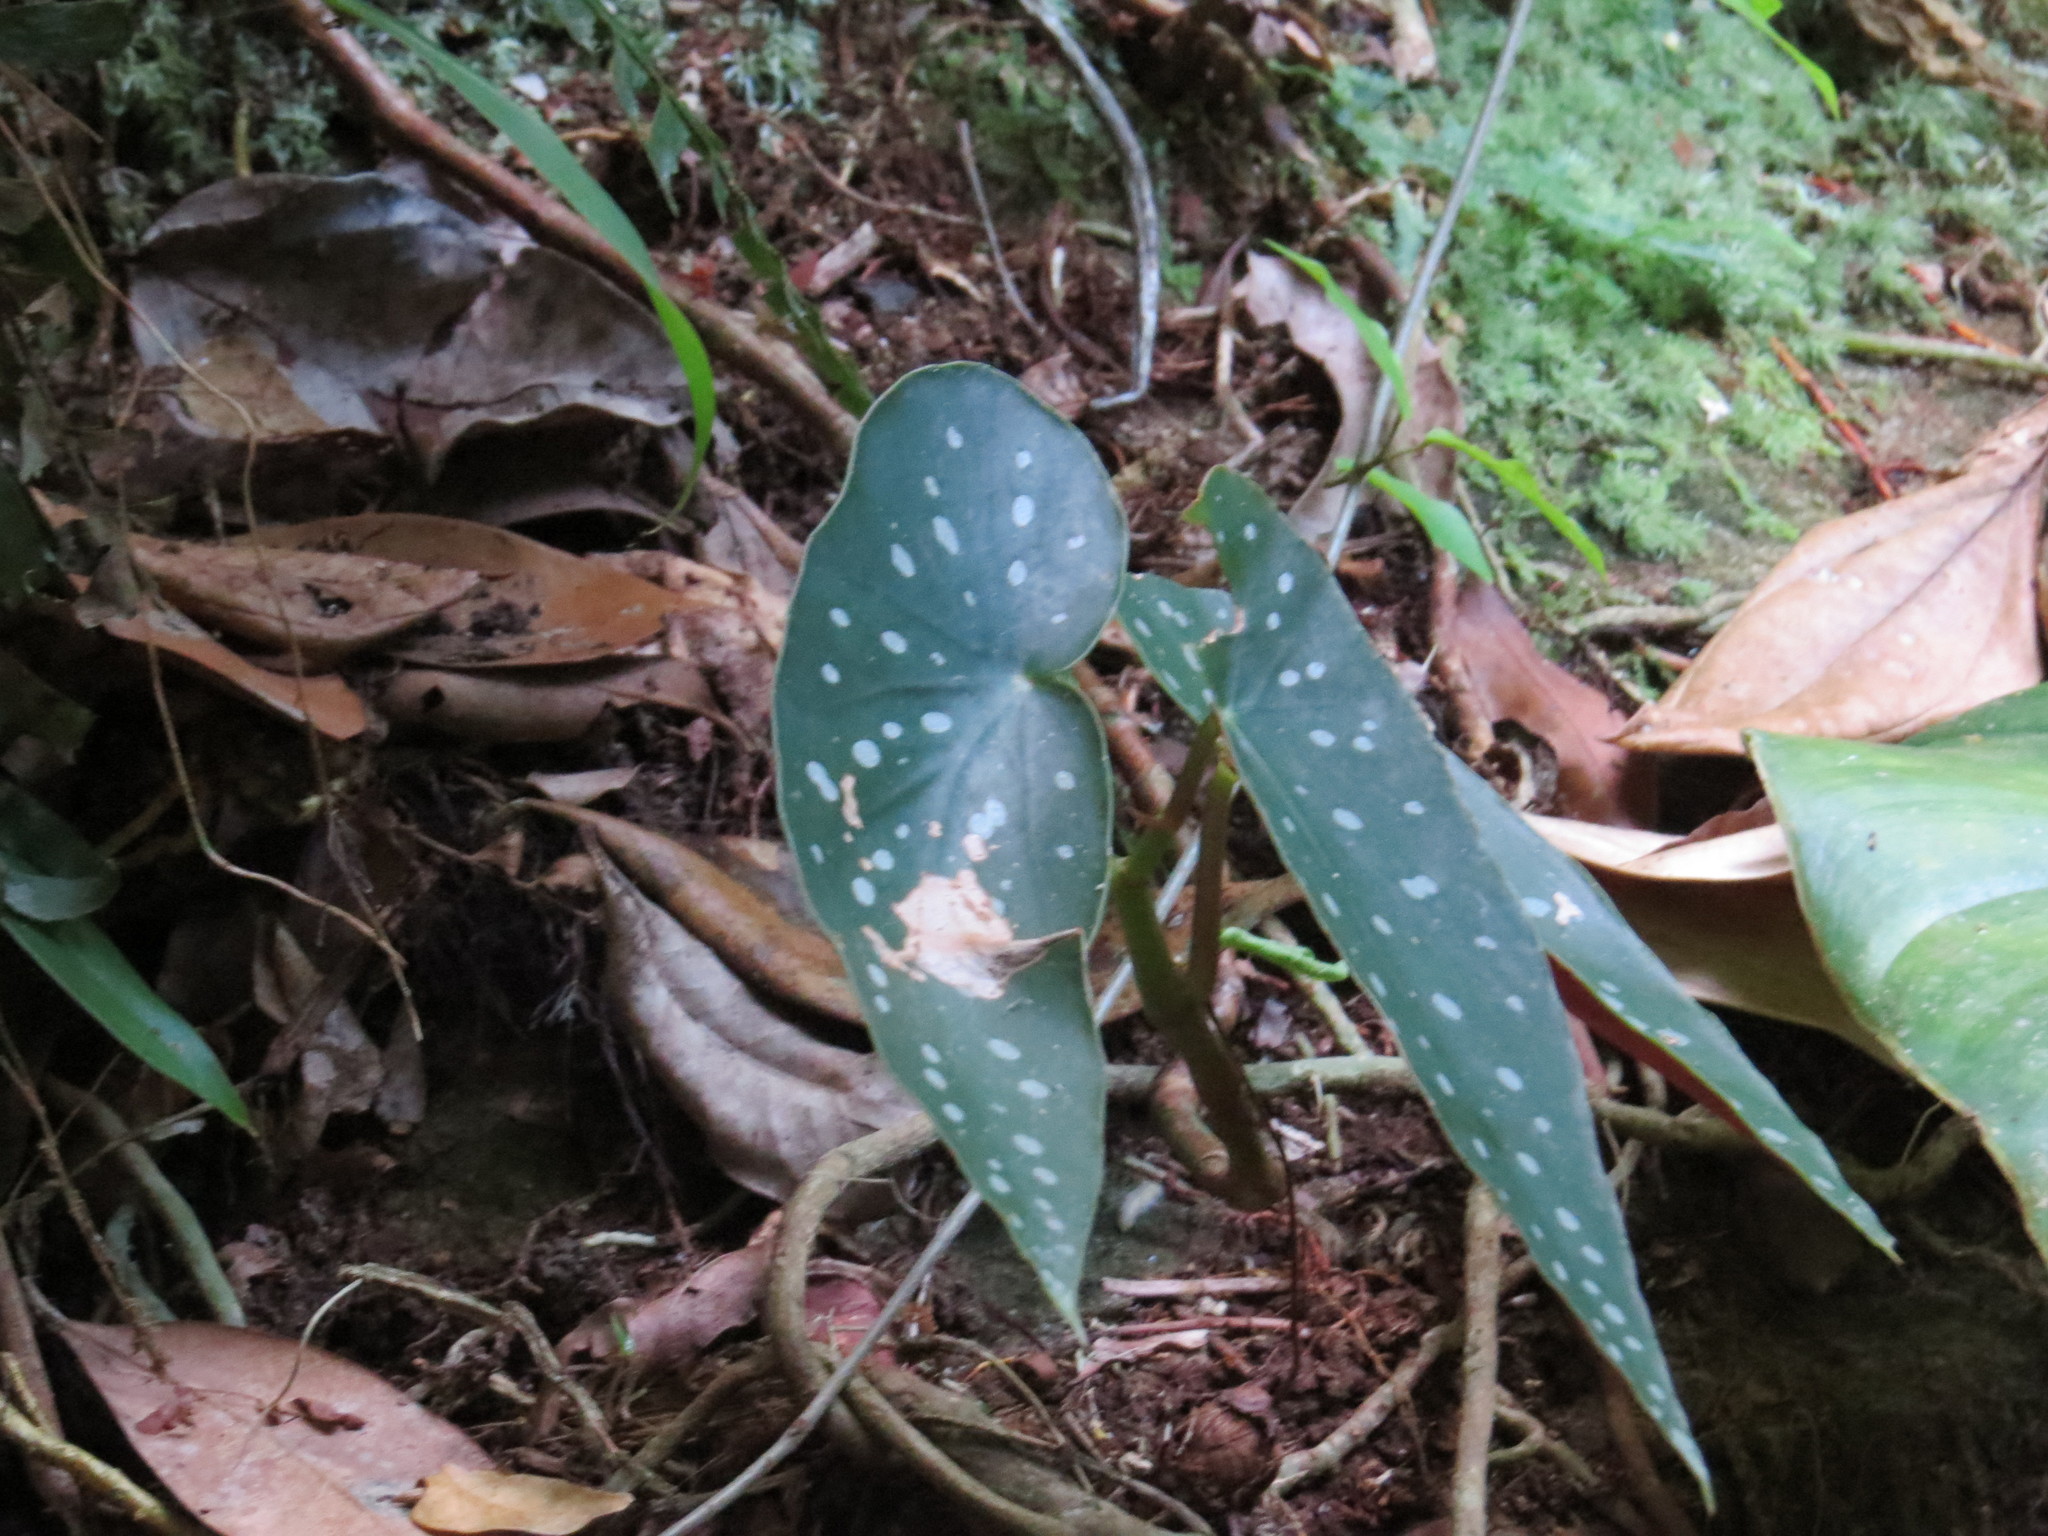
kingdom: Plantae
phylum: Tracheophyta
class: Magnoliopsida
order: Cucurbitales
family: Begoniaceae
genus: Begonia
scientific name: Begonia maculata
